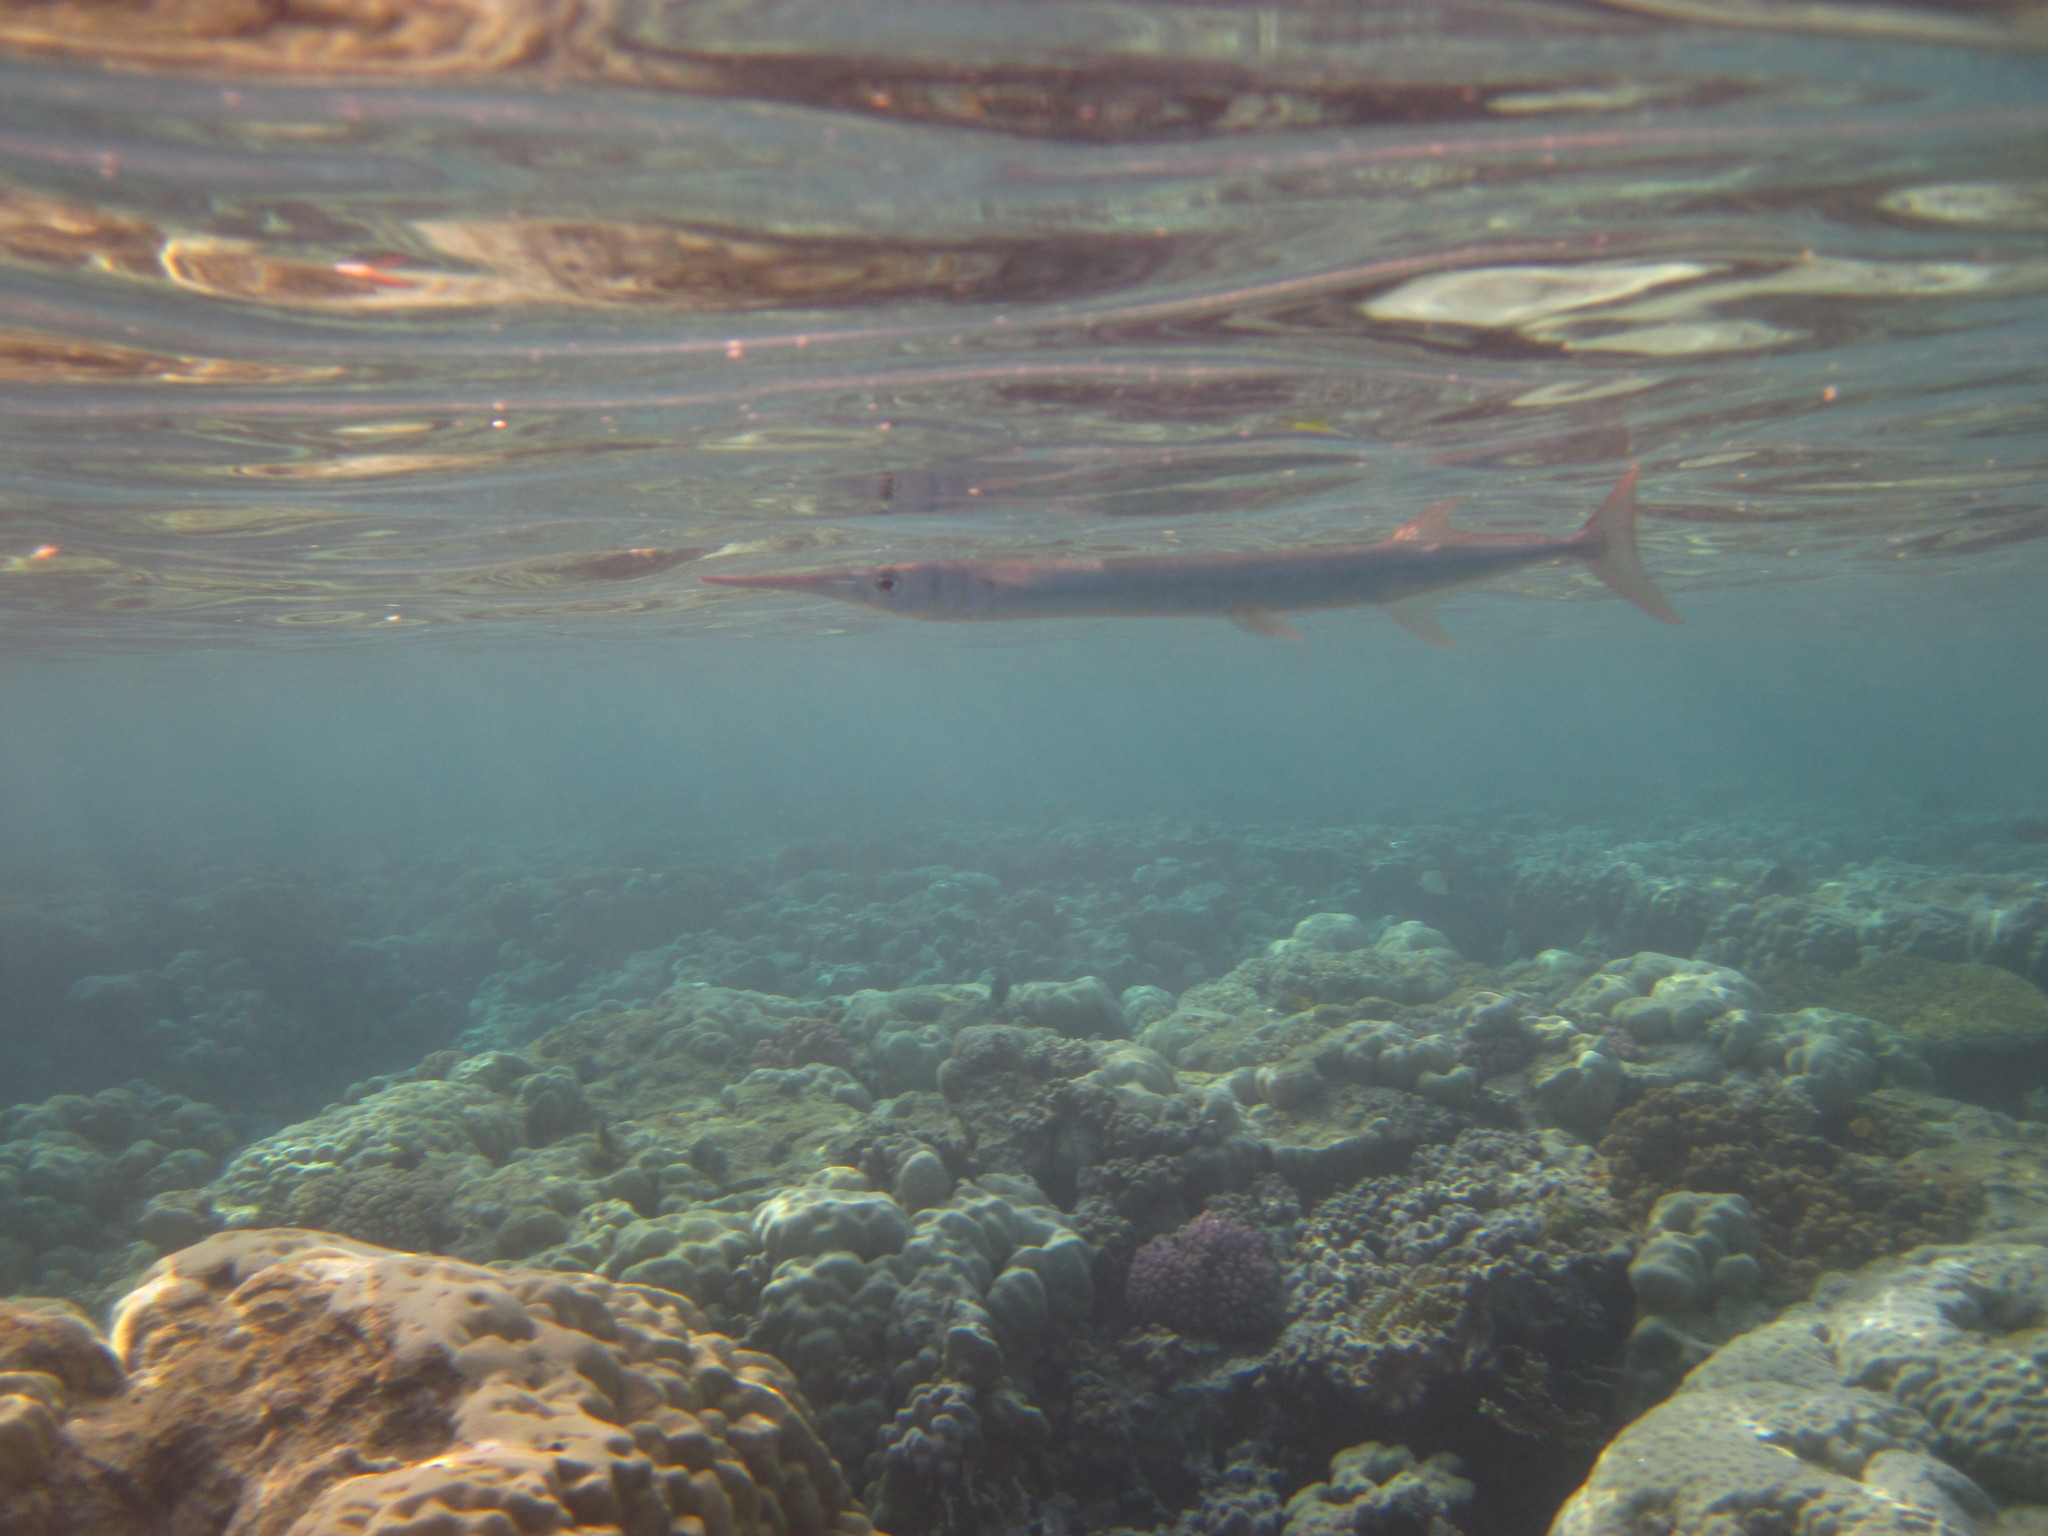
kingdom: Animalia
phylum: Chordata
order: Beloniformes
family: Belonidae
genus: Tylosurus
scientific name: Tylosurus choram
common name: Red sea houndfish
